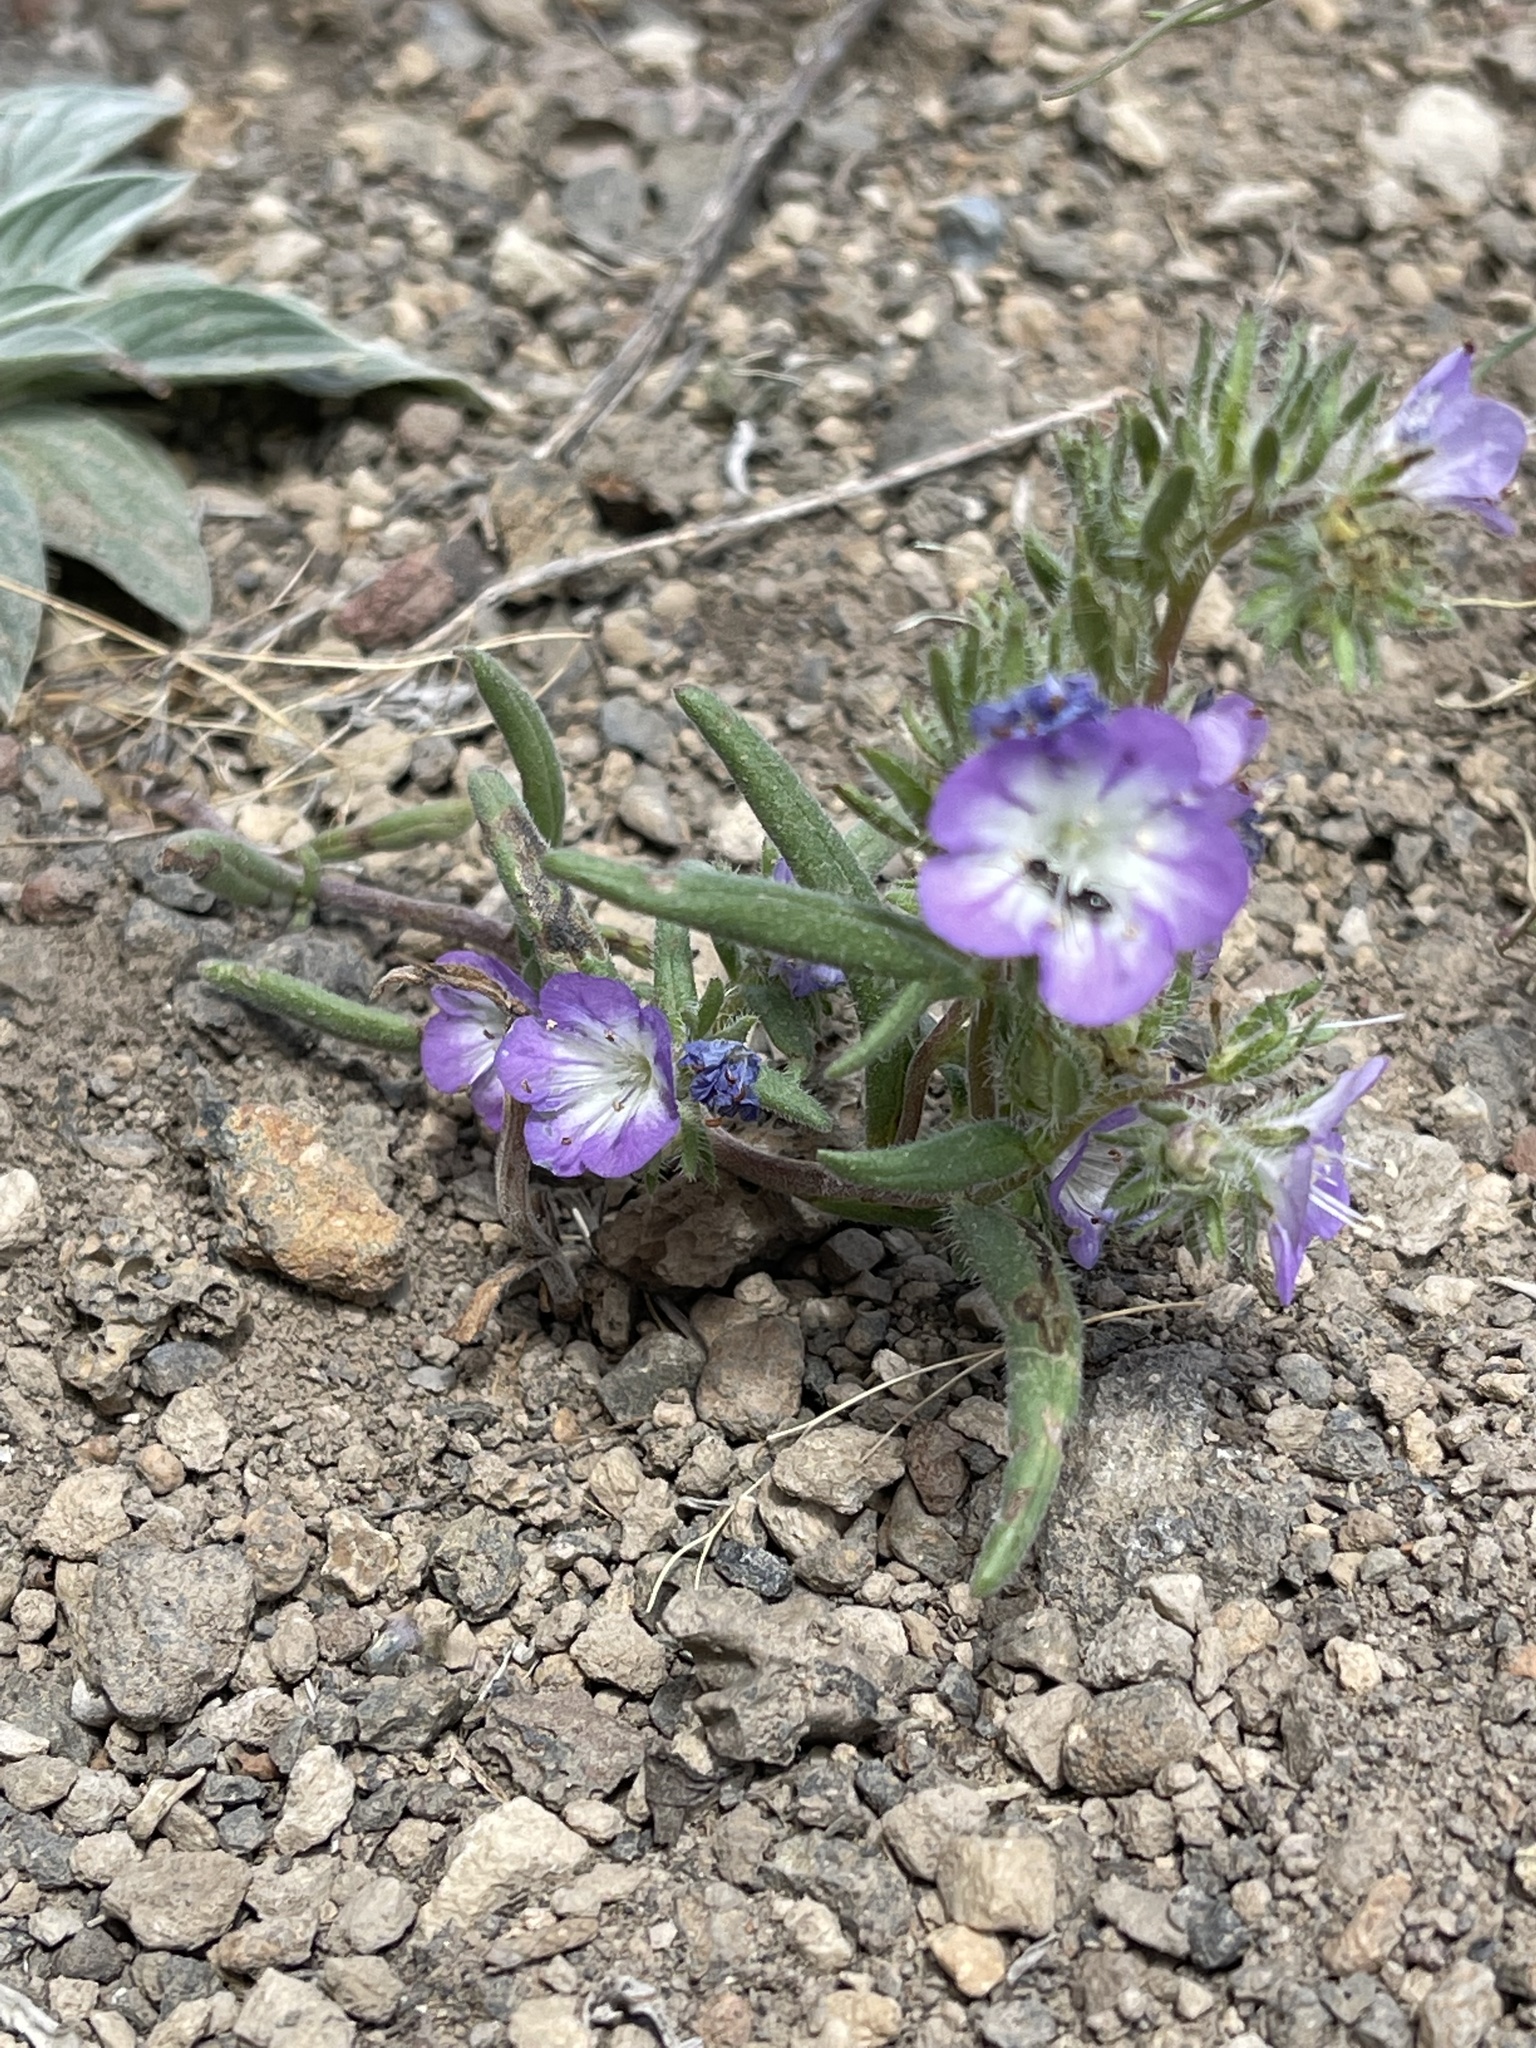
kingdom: Plantae
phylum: Tracheophyta
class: Magnoliopsida
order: Boraginales
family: Hydrophyllaceae
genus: Phacelia
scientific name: Phacelia linearis
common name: Linear-leaved phacelia
